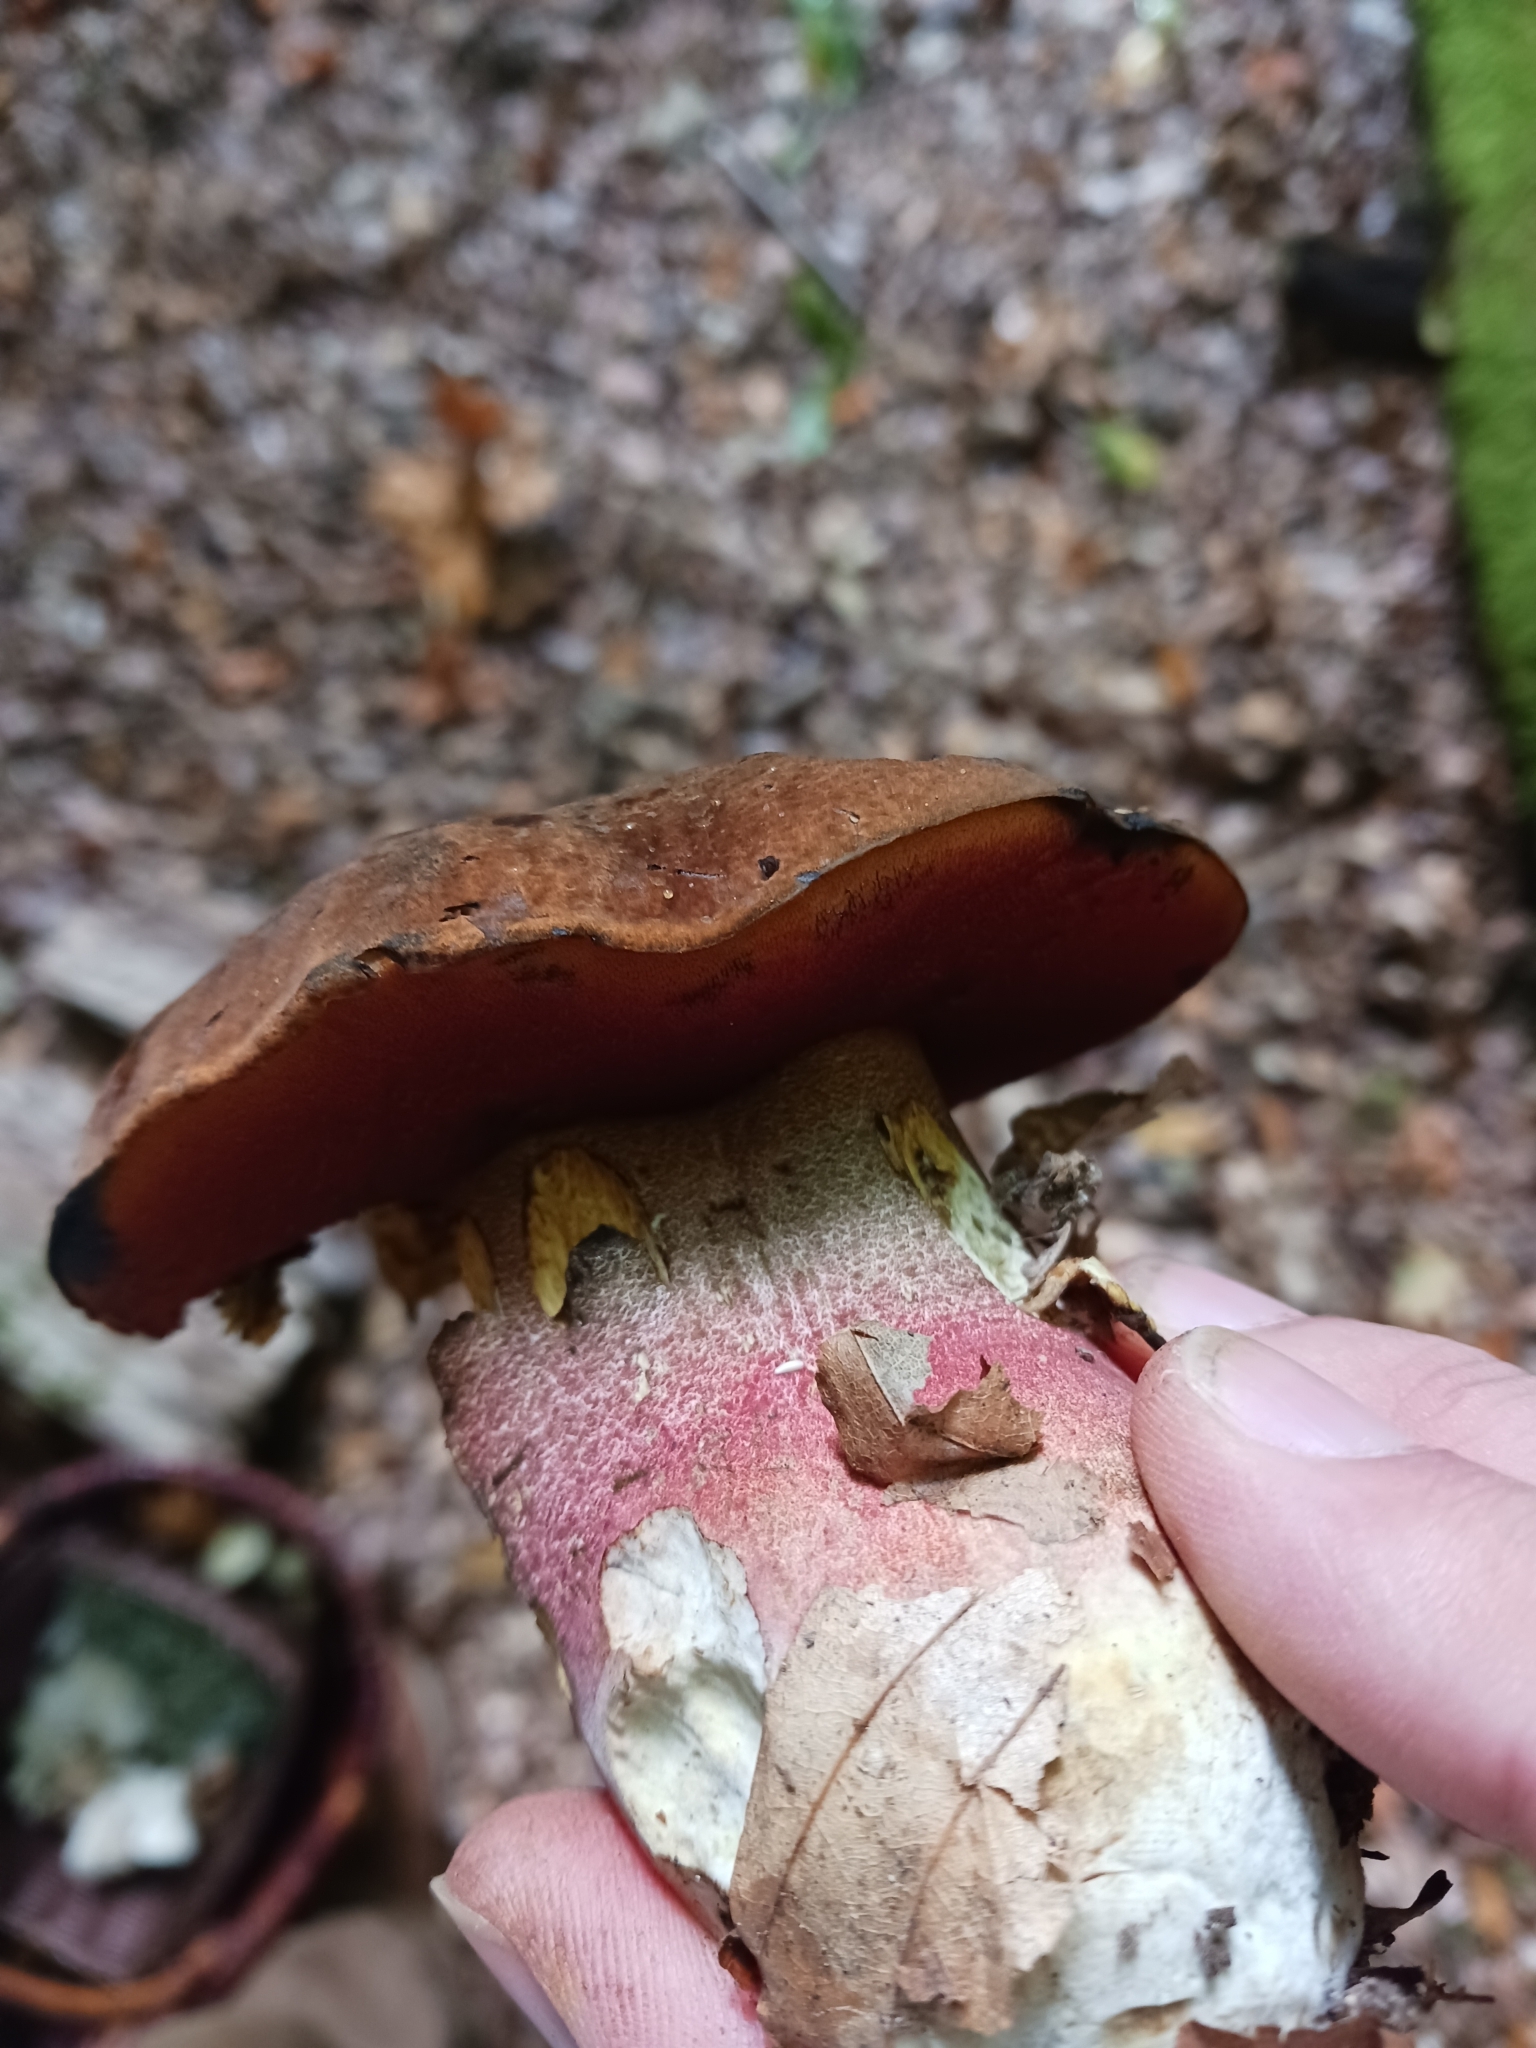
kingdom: Fungi
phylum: Basidiomycota
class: Agaricomycetes
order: Boletales
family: Boletaceae
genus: Neoboletus
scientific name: Neoboletus erythropus
